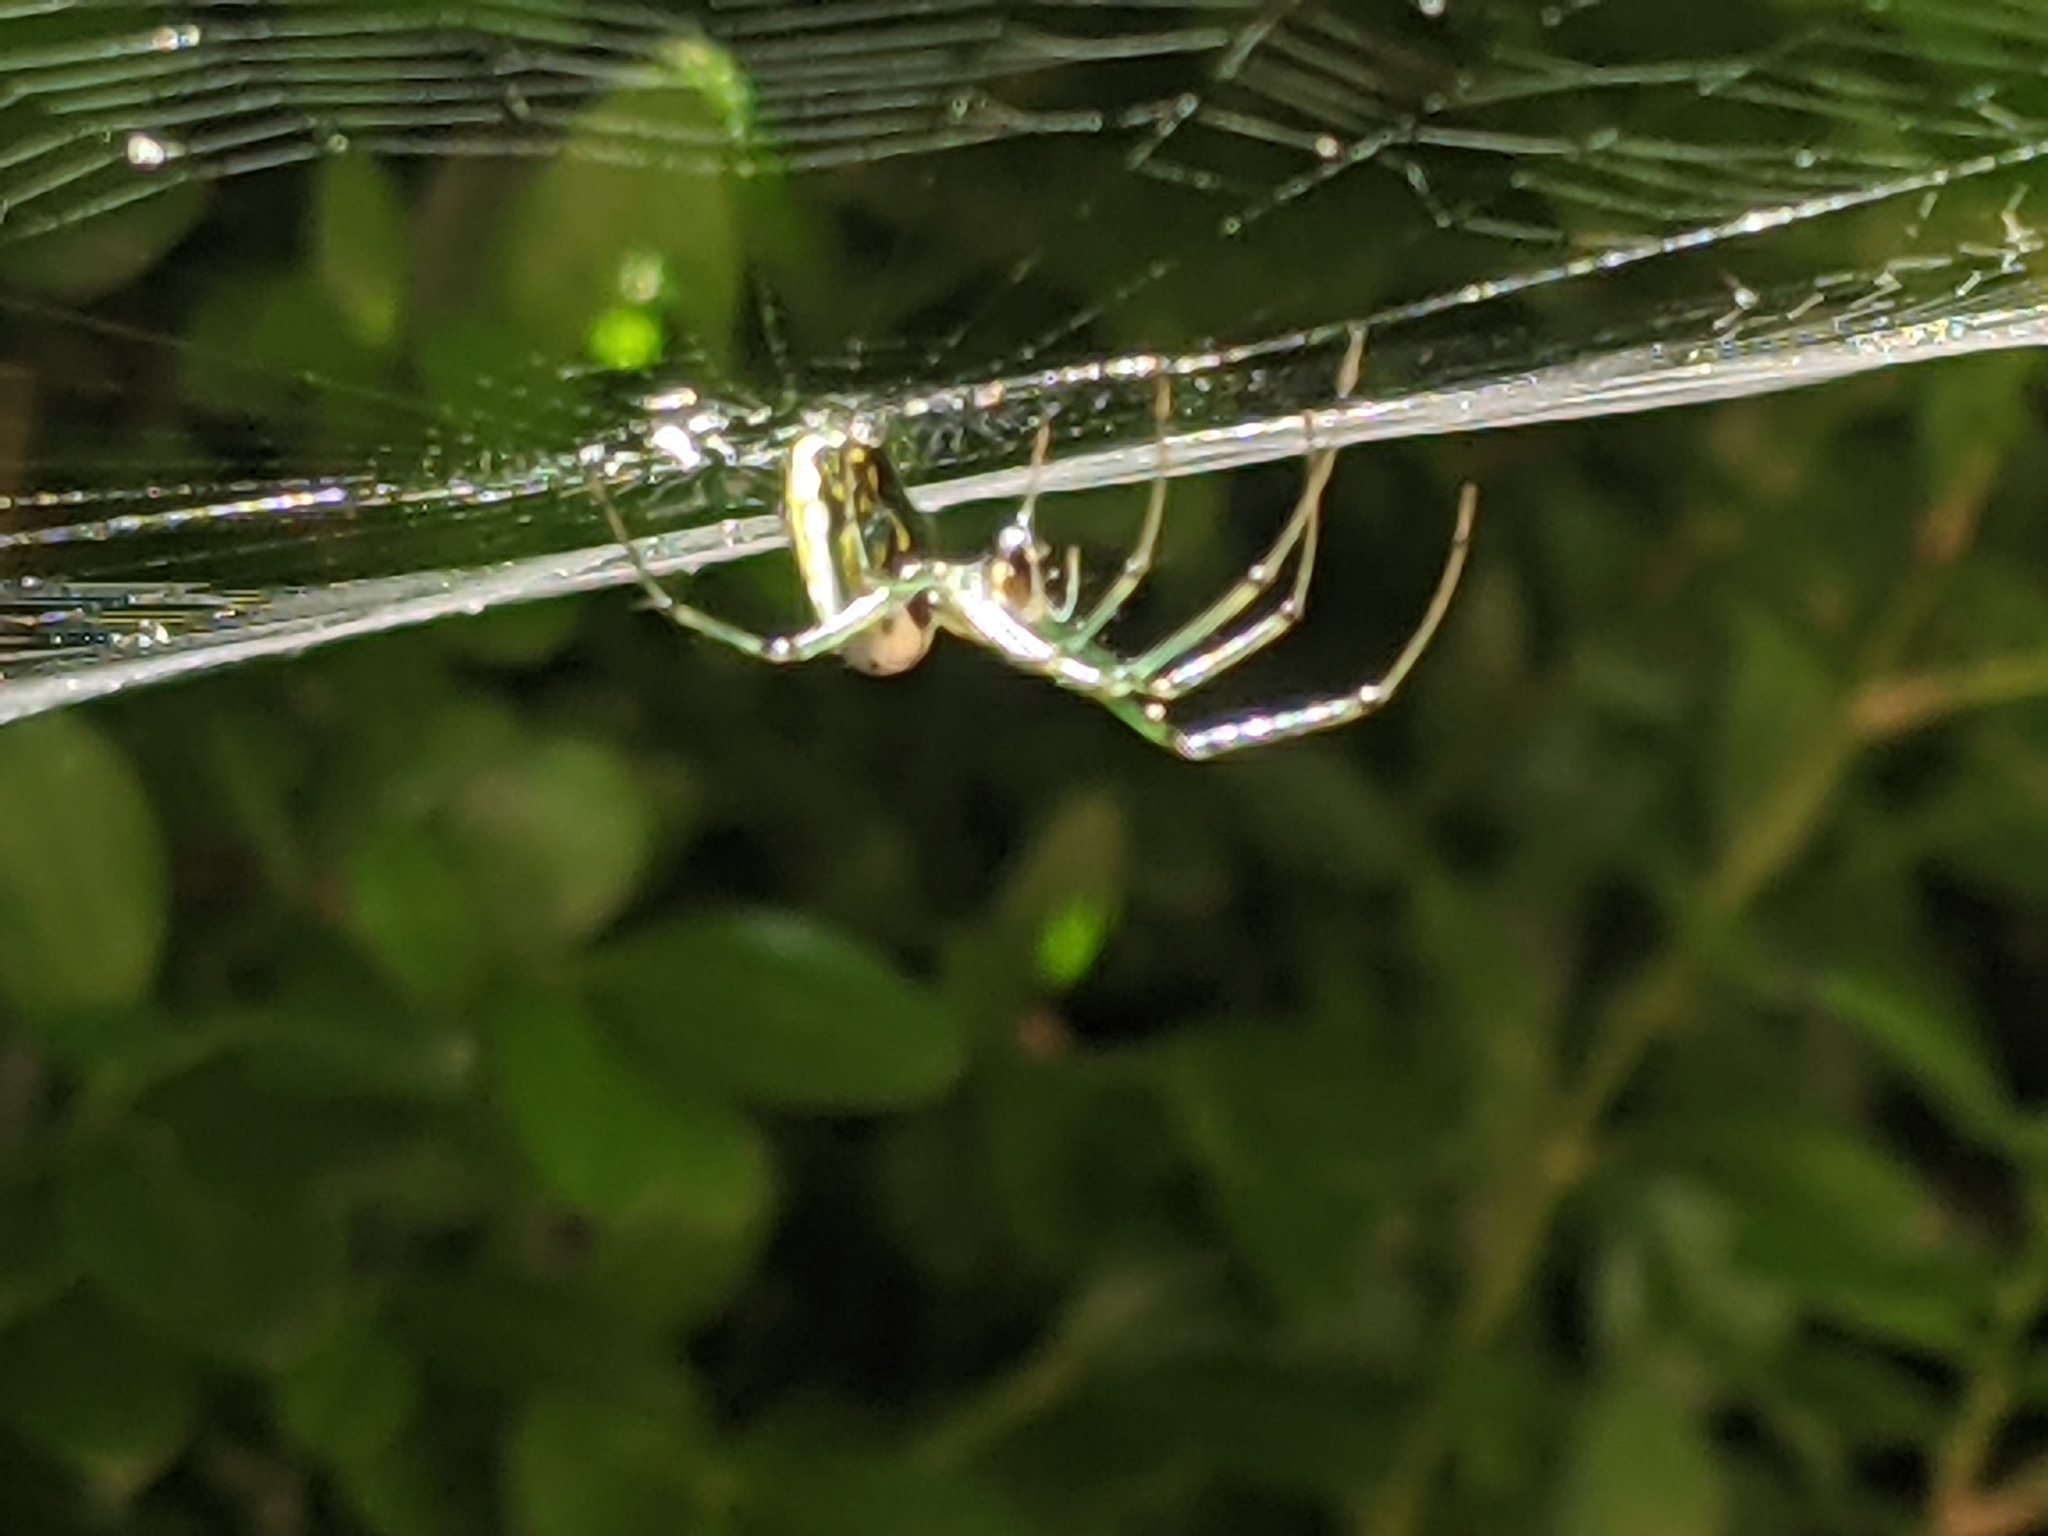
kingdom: Animalia
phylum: Arthropoda
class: Arachnida
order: Araneae
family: Tetragnathidae
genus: Leucauge
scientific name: Leucauge venusta
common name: Longjawed orb weavers
